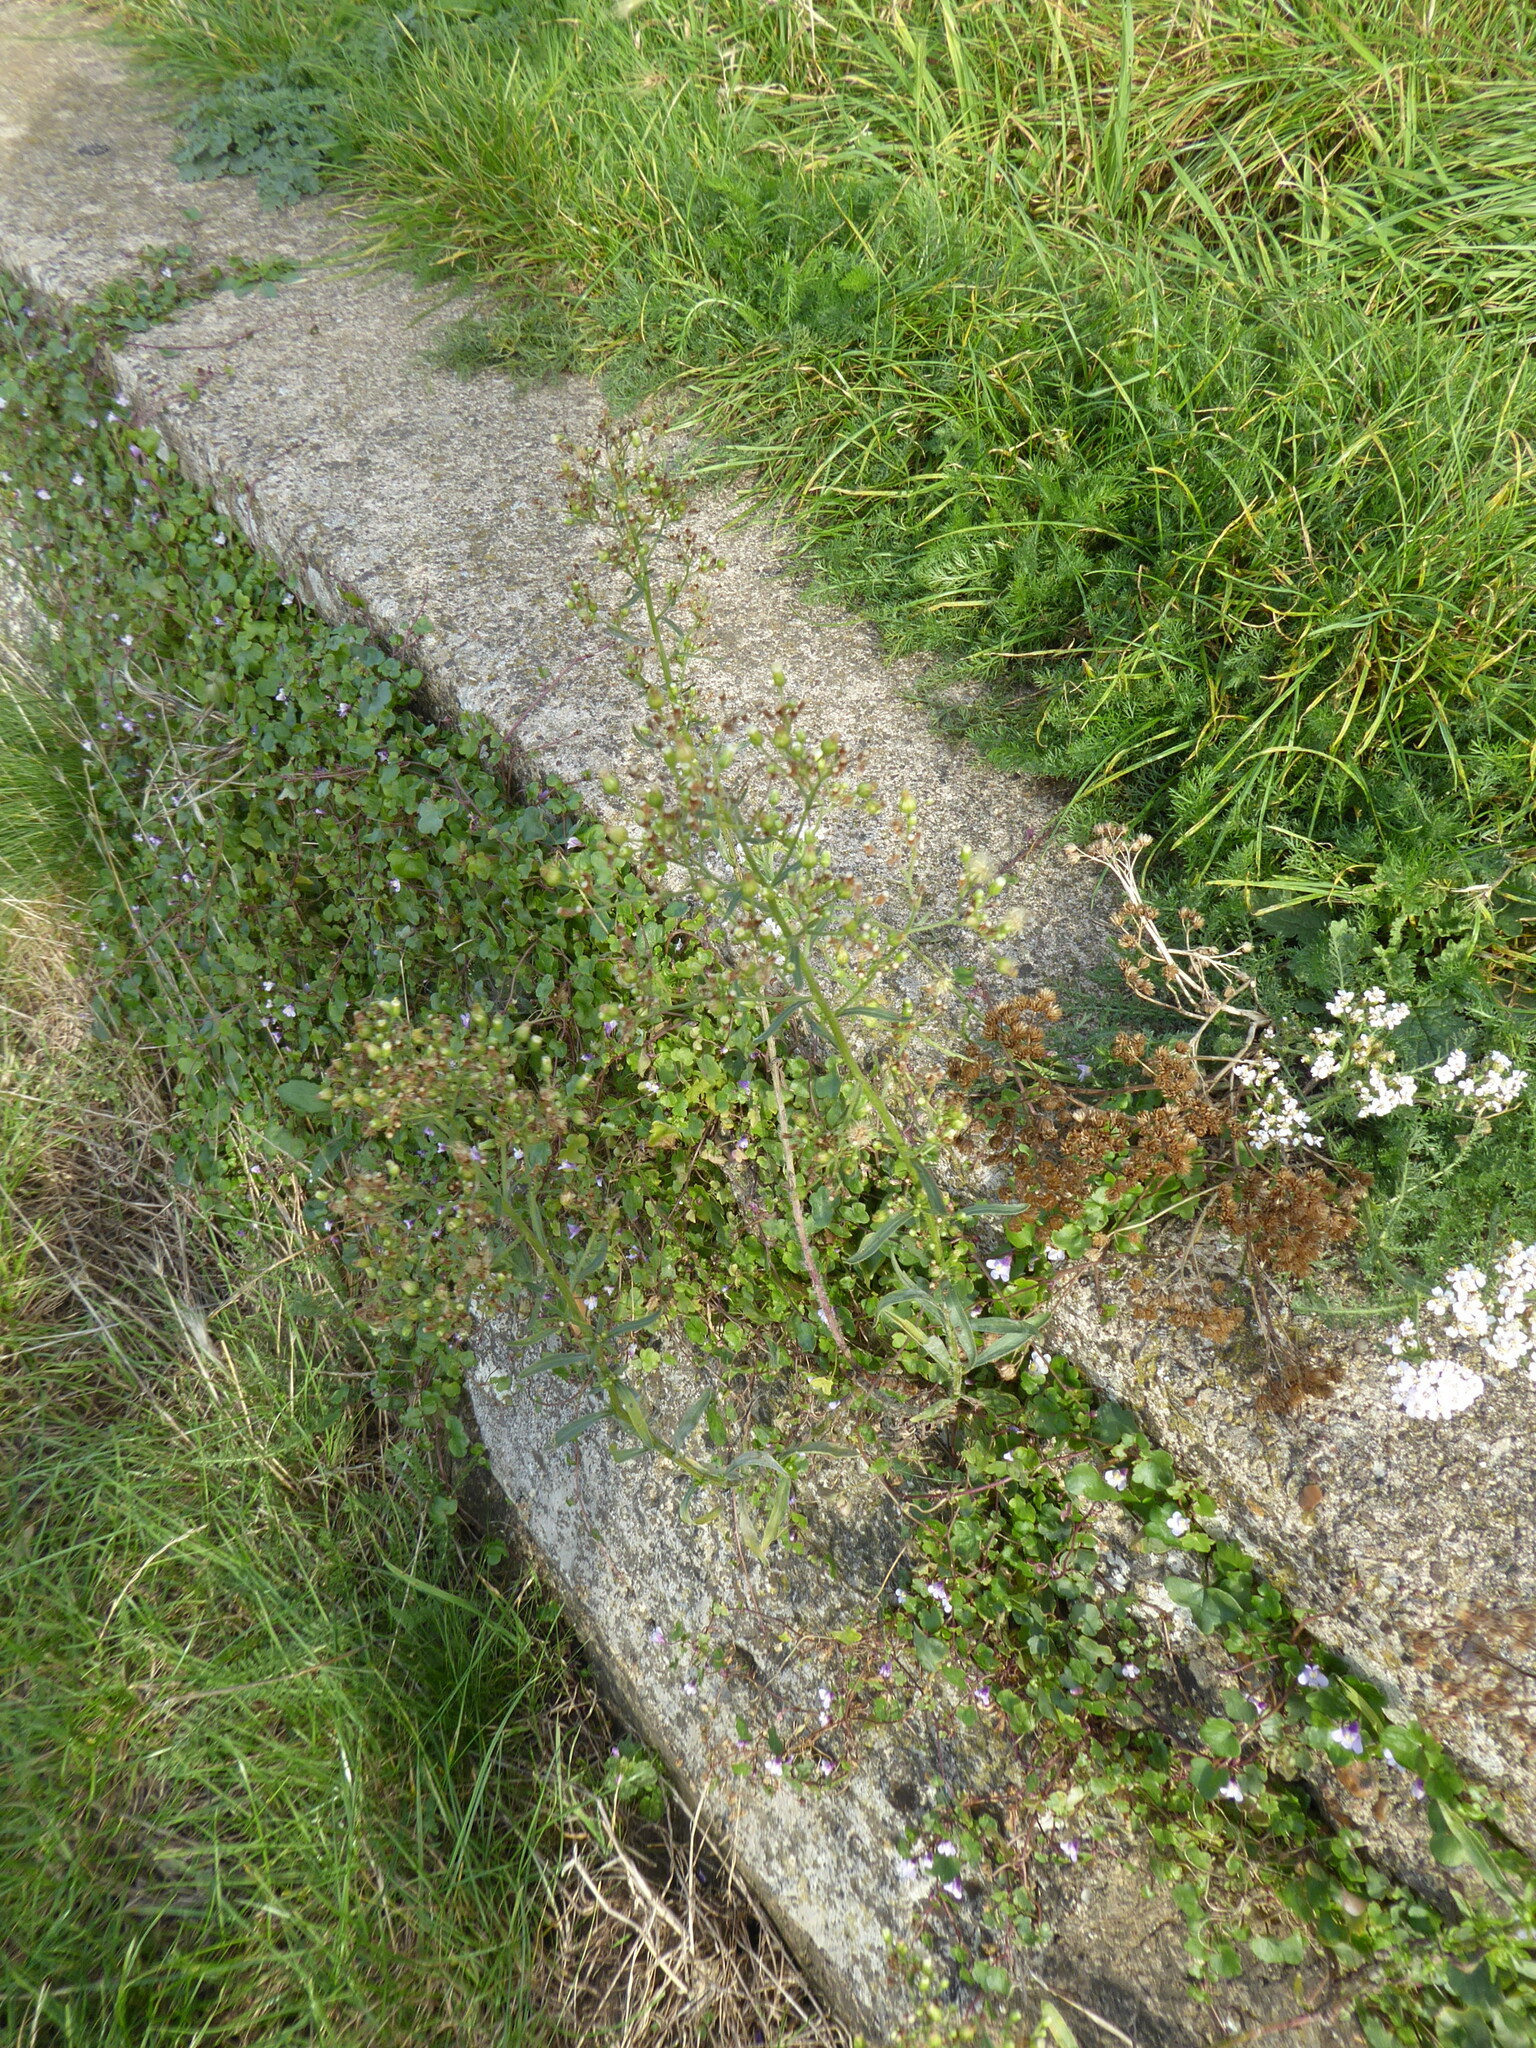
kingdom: Plantae
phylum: Tracheophyta
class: Magnoliopsida
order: Asterales
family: Asteraceae
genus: Erigeron
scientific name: Erigeron floribundus
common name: Bilbao fleabane
